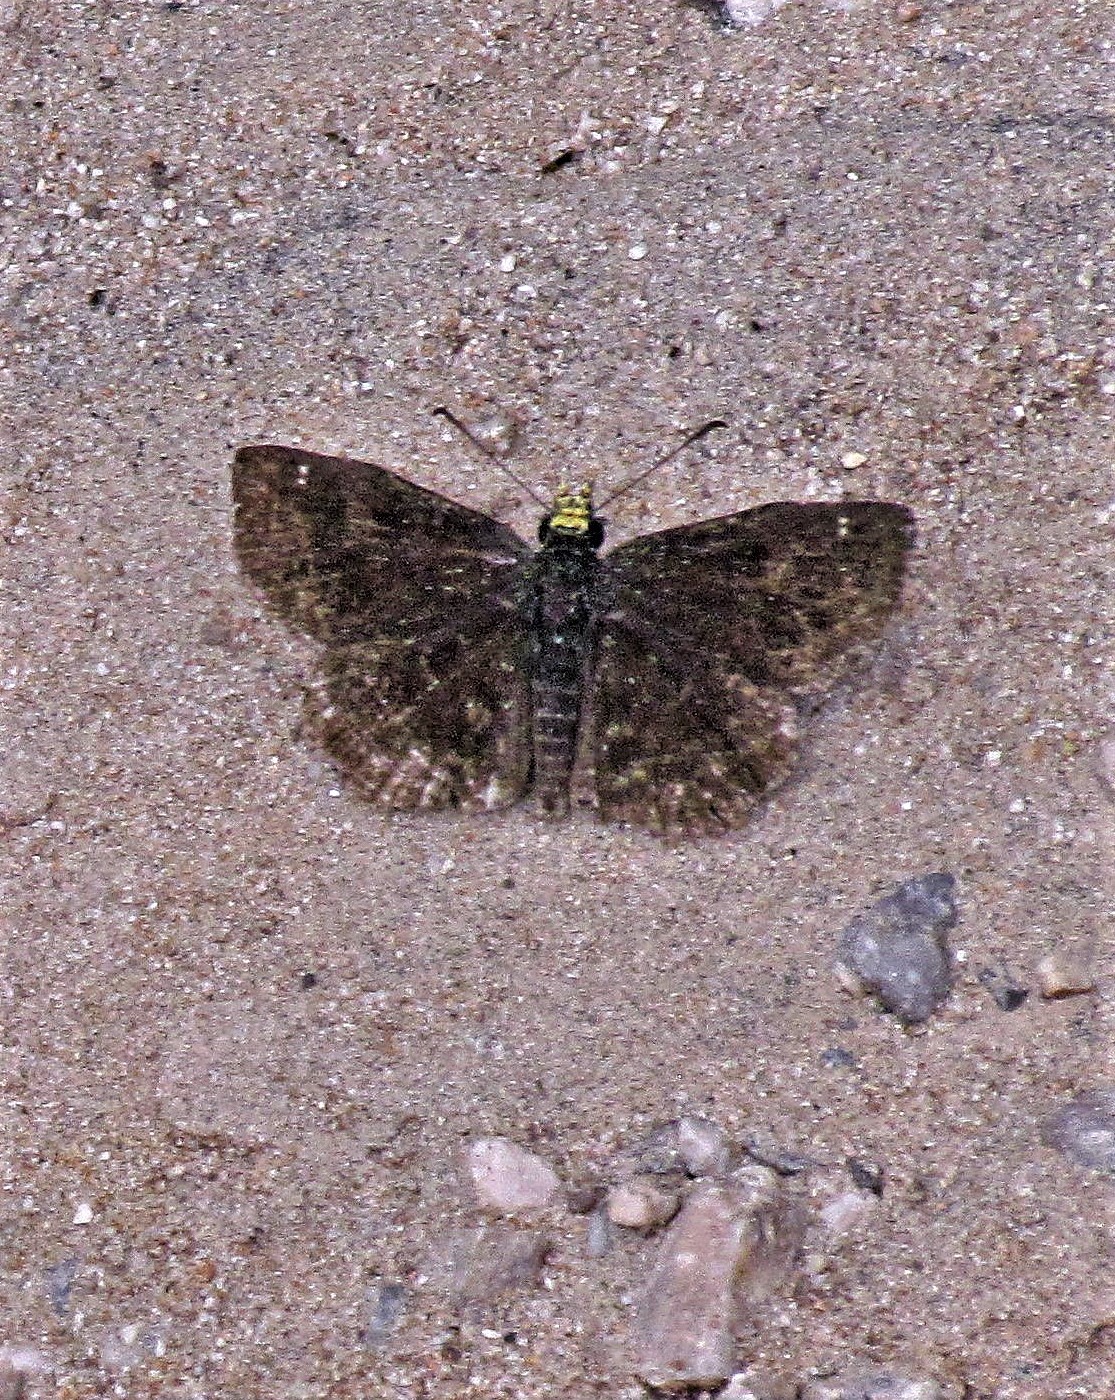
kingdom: Animalia
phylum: Arthropoda
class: Insecta
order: Lepidoptera
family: Hesperiidae
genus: Staphylus
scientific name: Staphylus musculus
